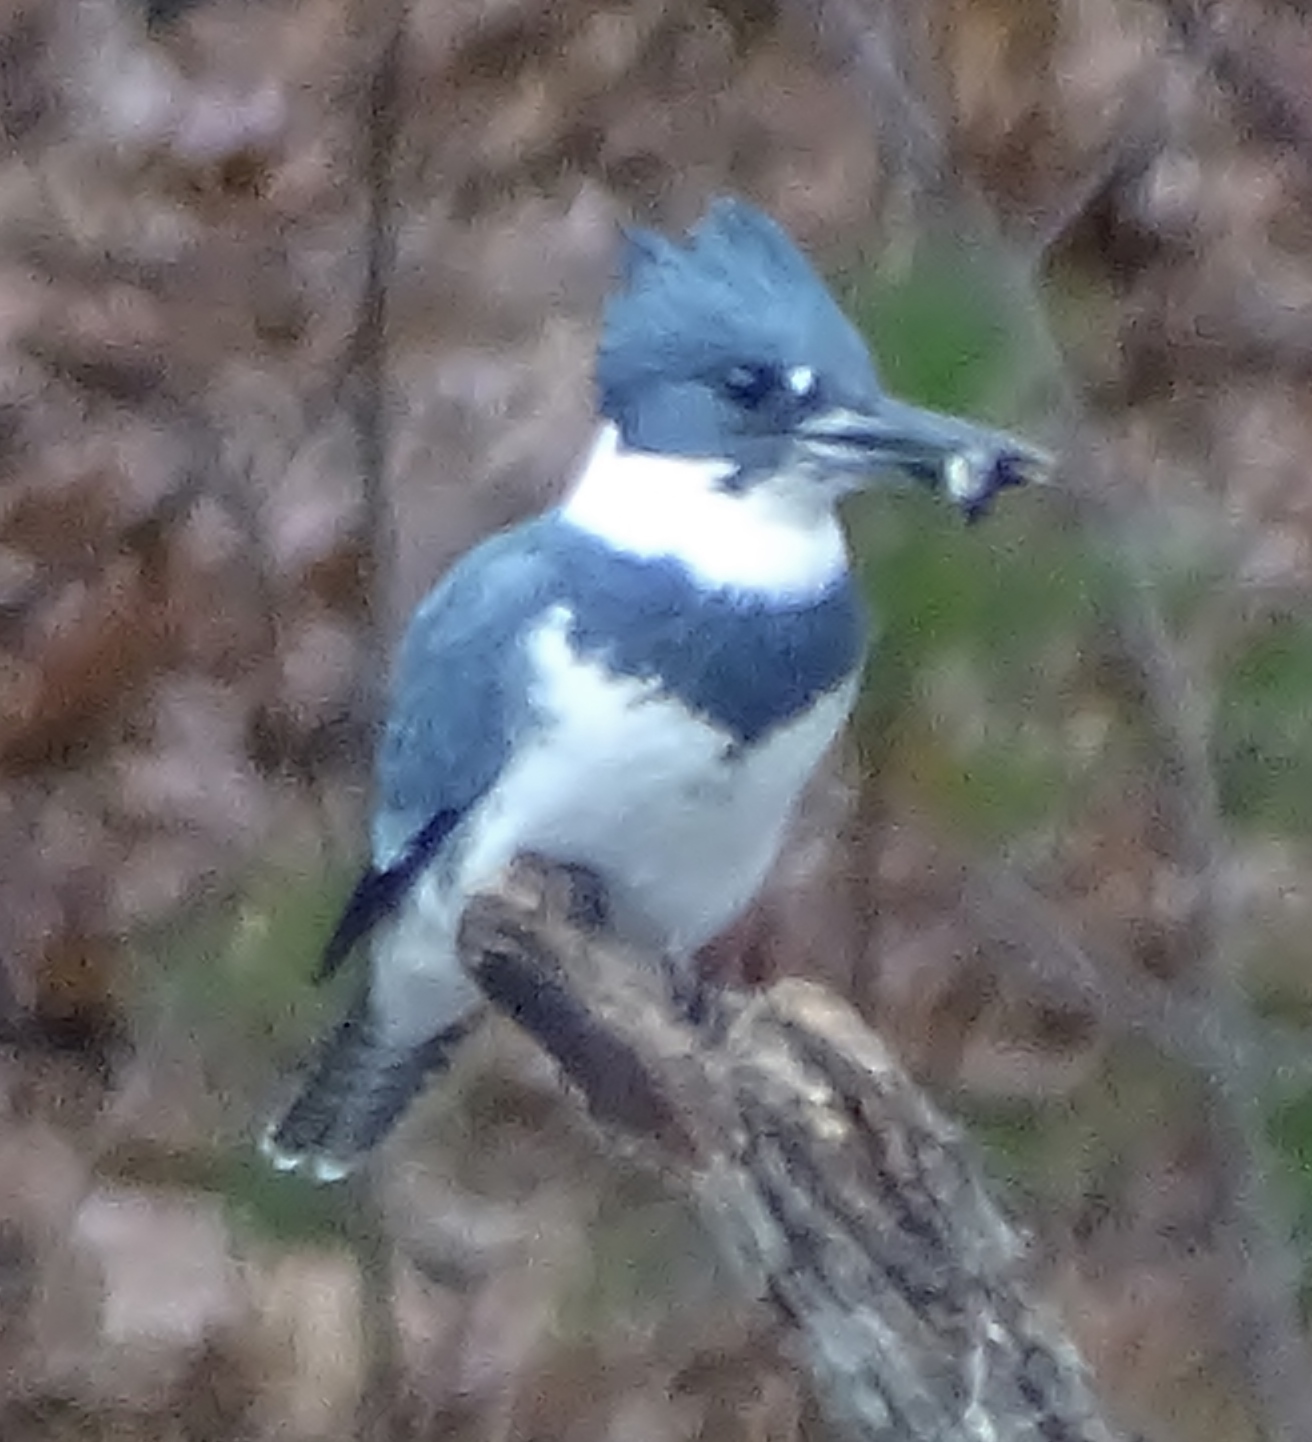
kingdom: Animalia
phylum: Chordata
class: Aves
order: Coraciiformes
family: Alcedinidae
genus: Megaceryle
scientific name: Megaceryle alcyon
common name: Belted kingfisher
